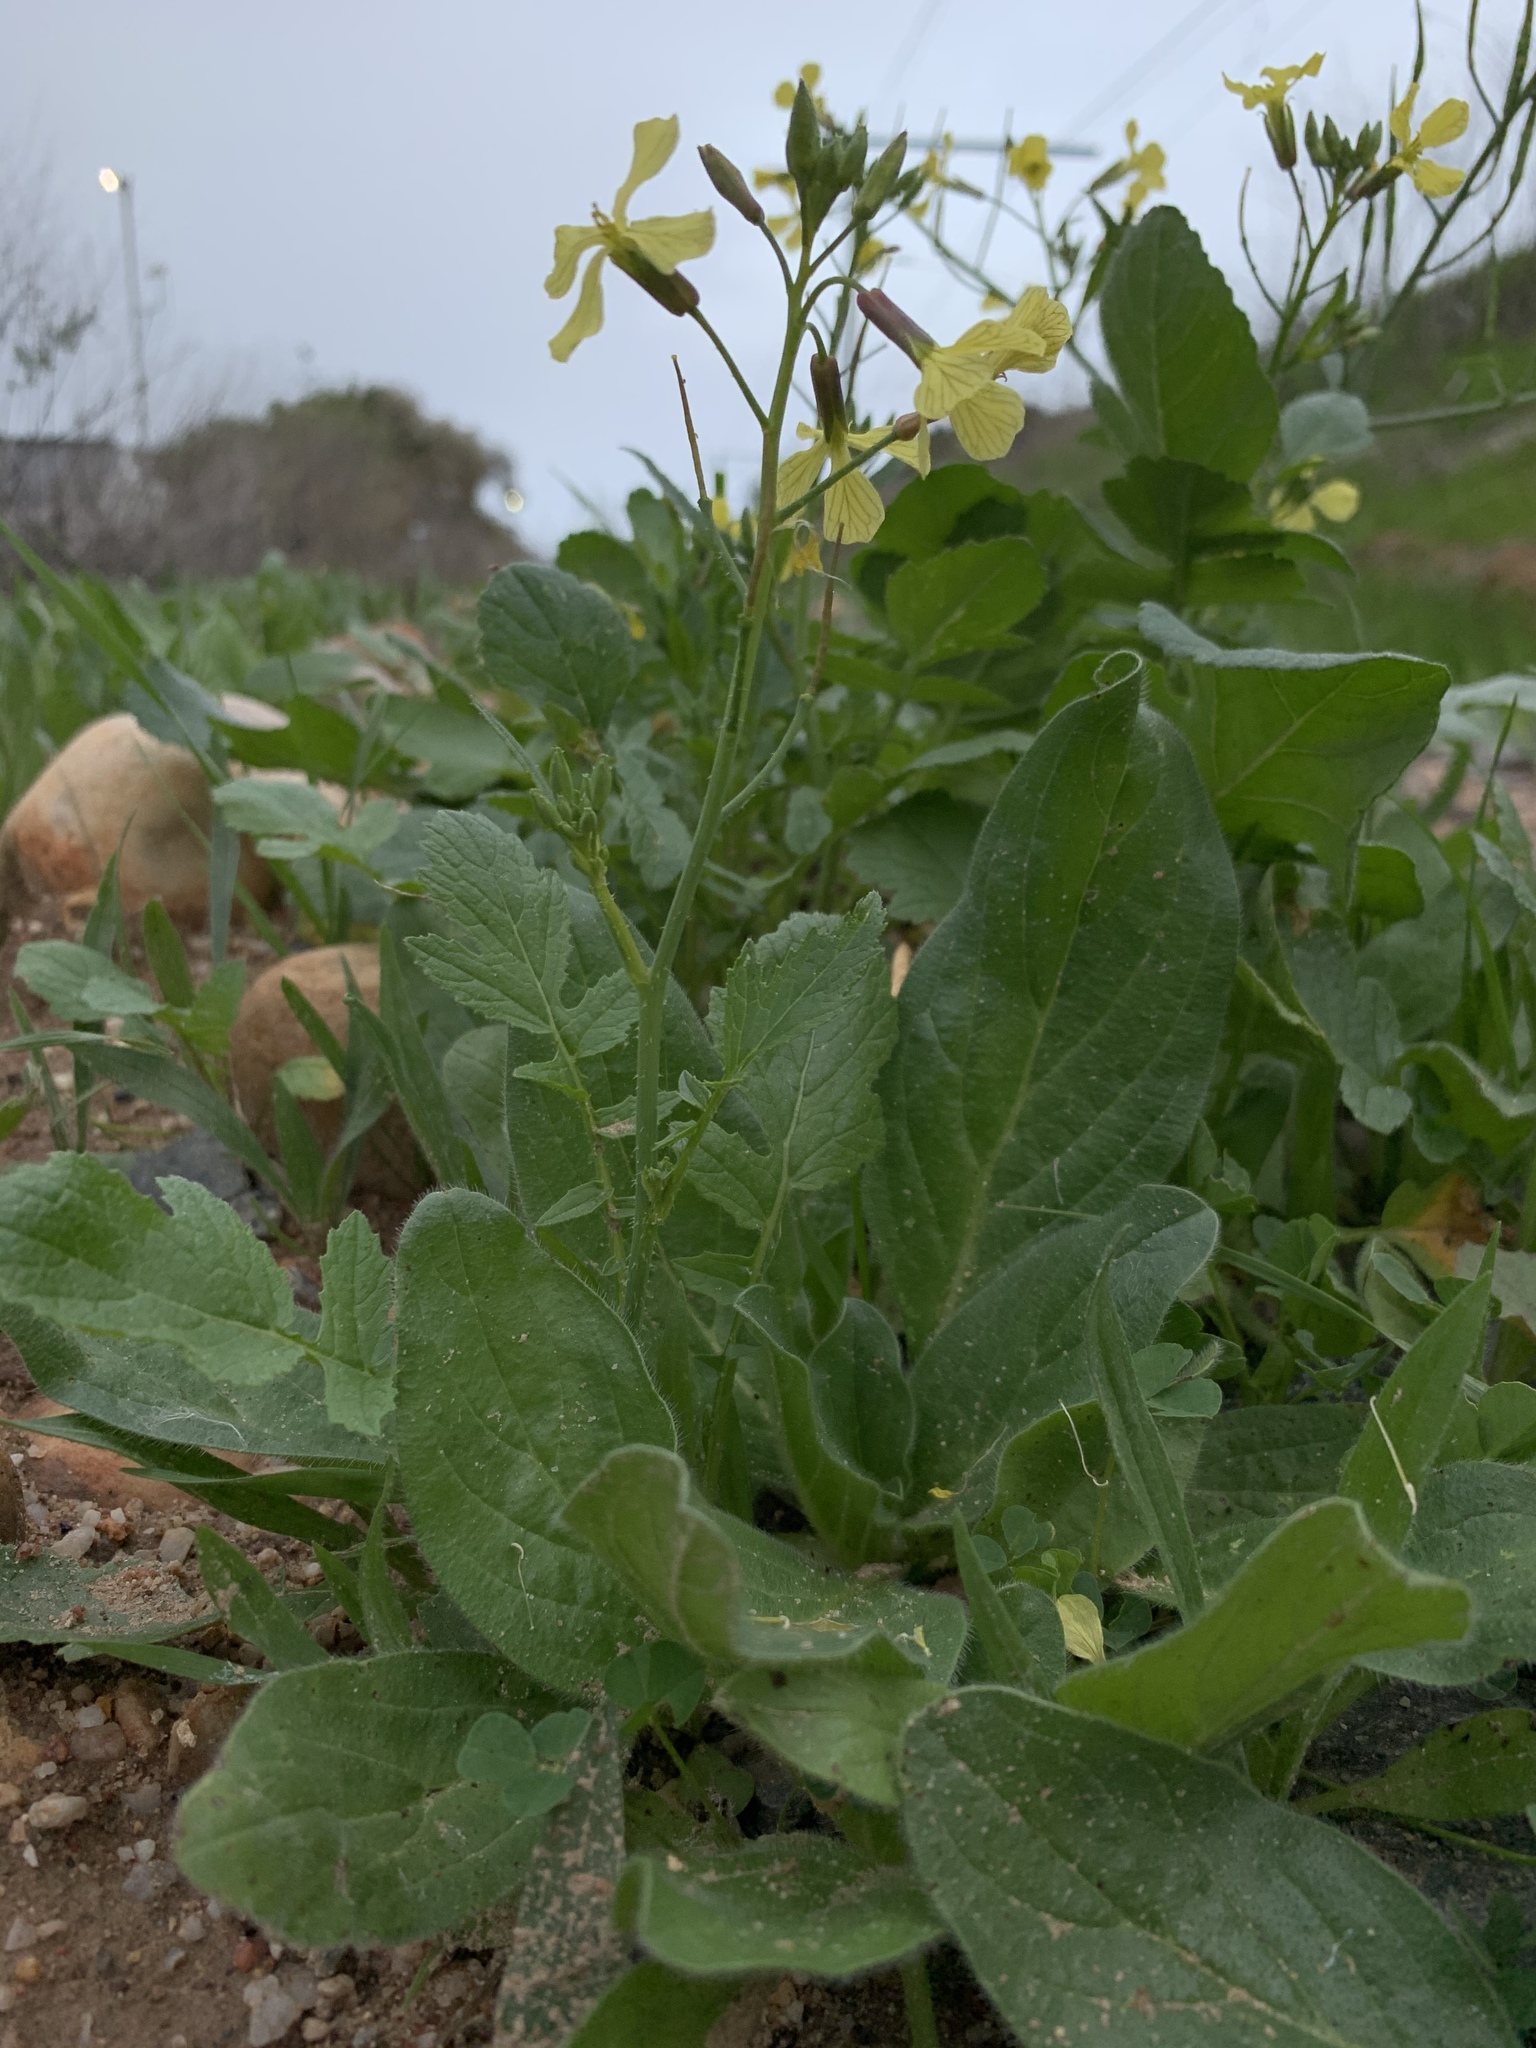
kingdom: Plantae
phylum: Tracheophyta
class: Magnoliopsida
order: Brassicales
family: Brassicaceae
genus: Raphanus
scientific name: Raphanus raphanistrum
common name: Wild radish
